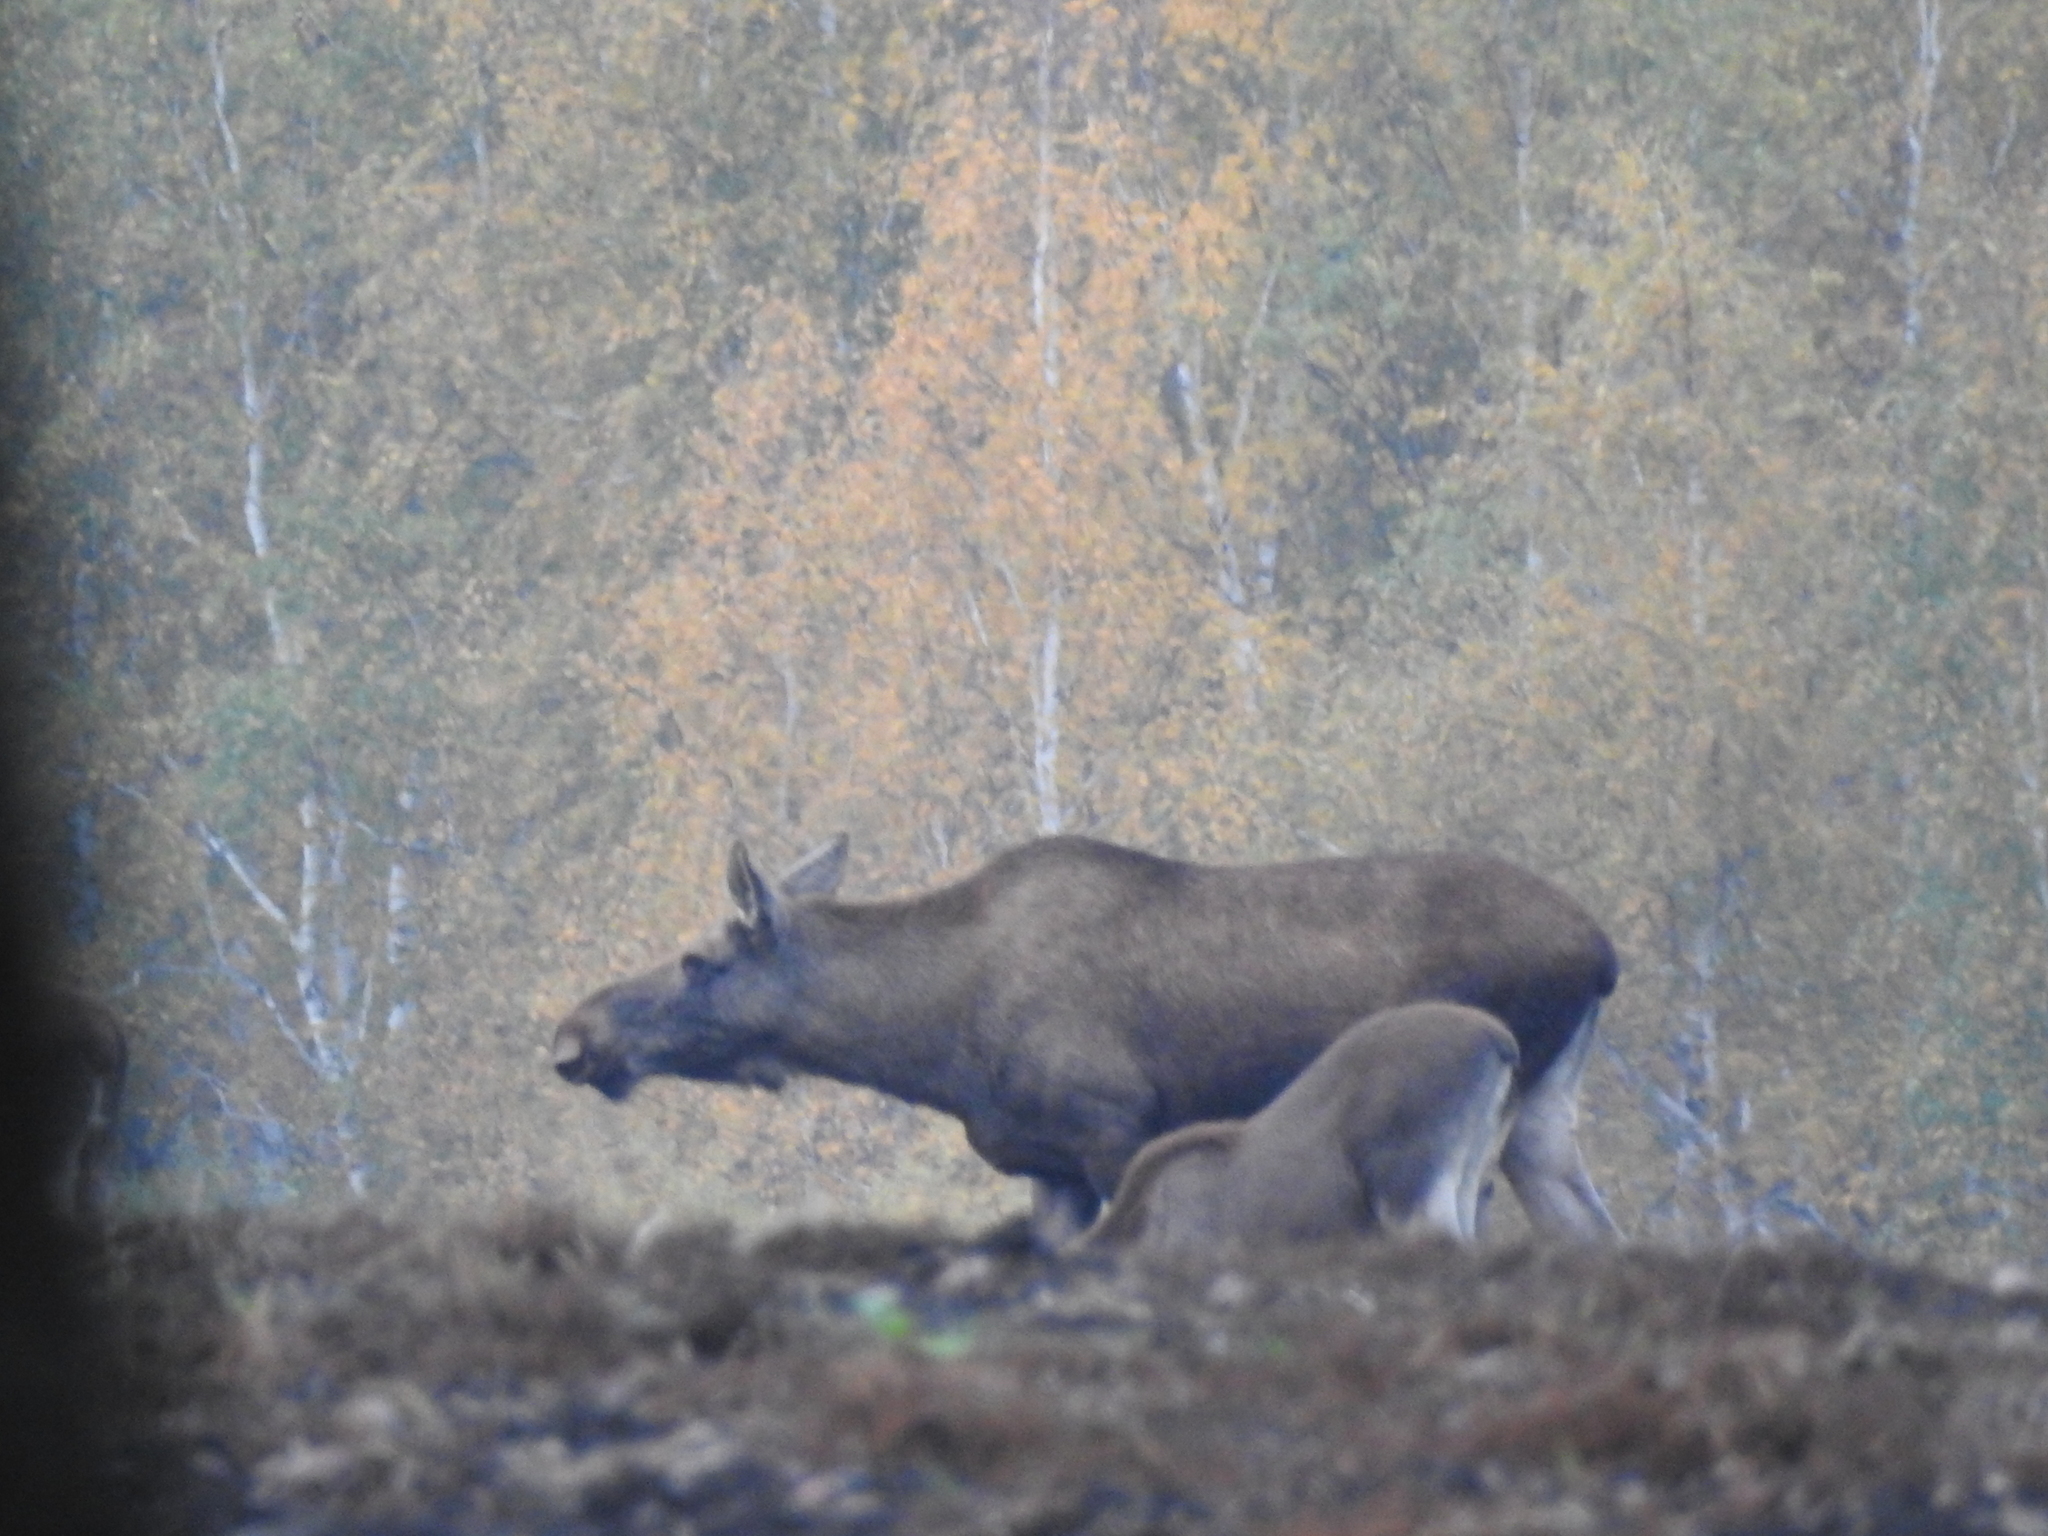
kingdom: Animalia
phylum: Chordata
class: Mammalia
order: Artiodactyla
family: Cervidae
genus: Alces
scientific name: Alces alces
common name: Moose
